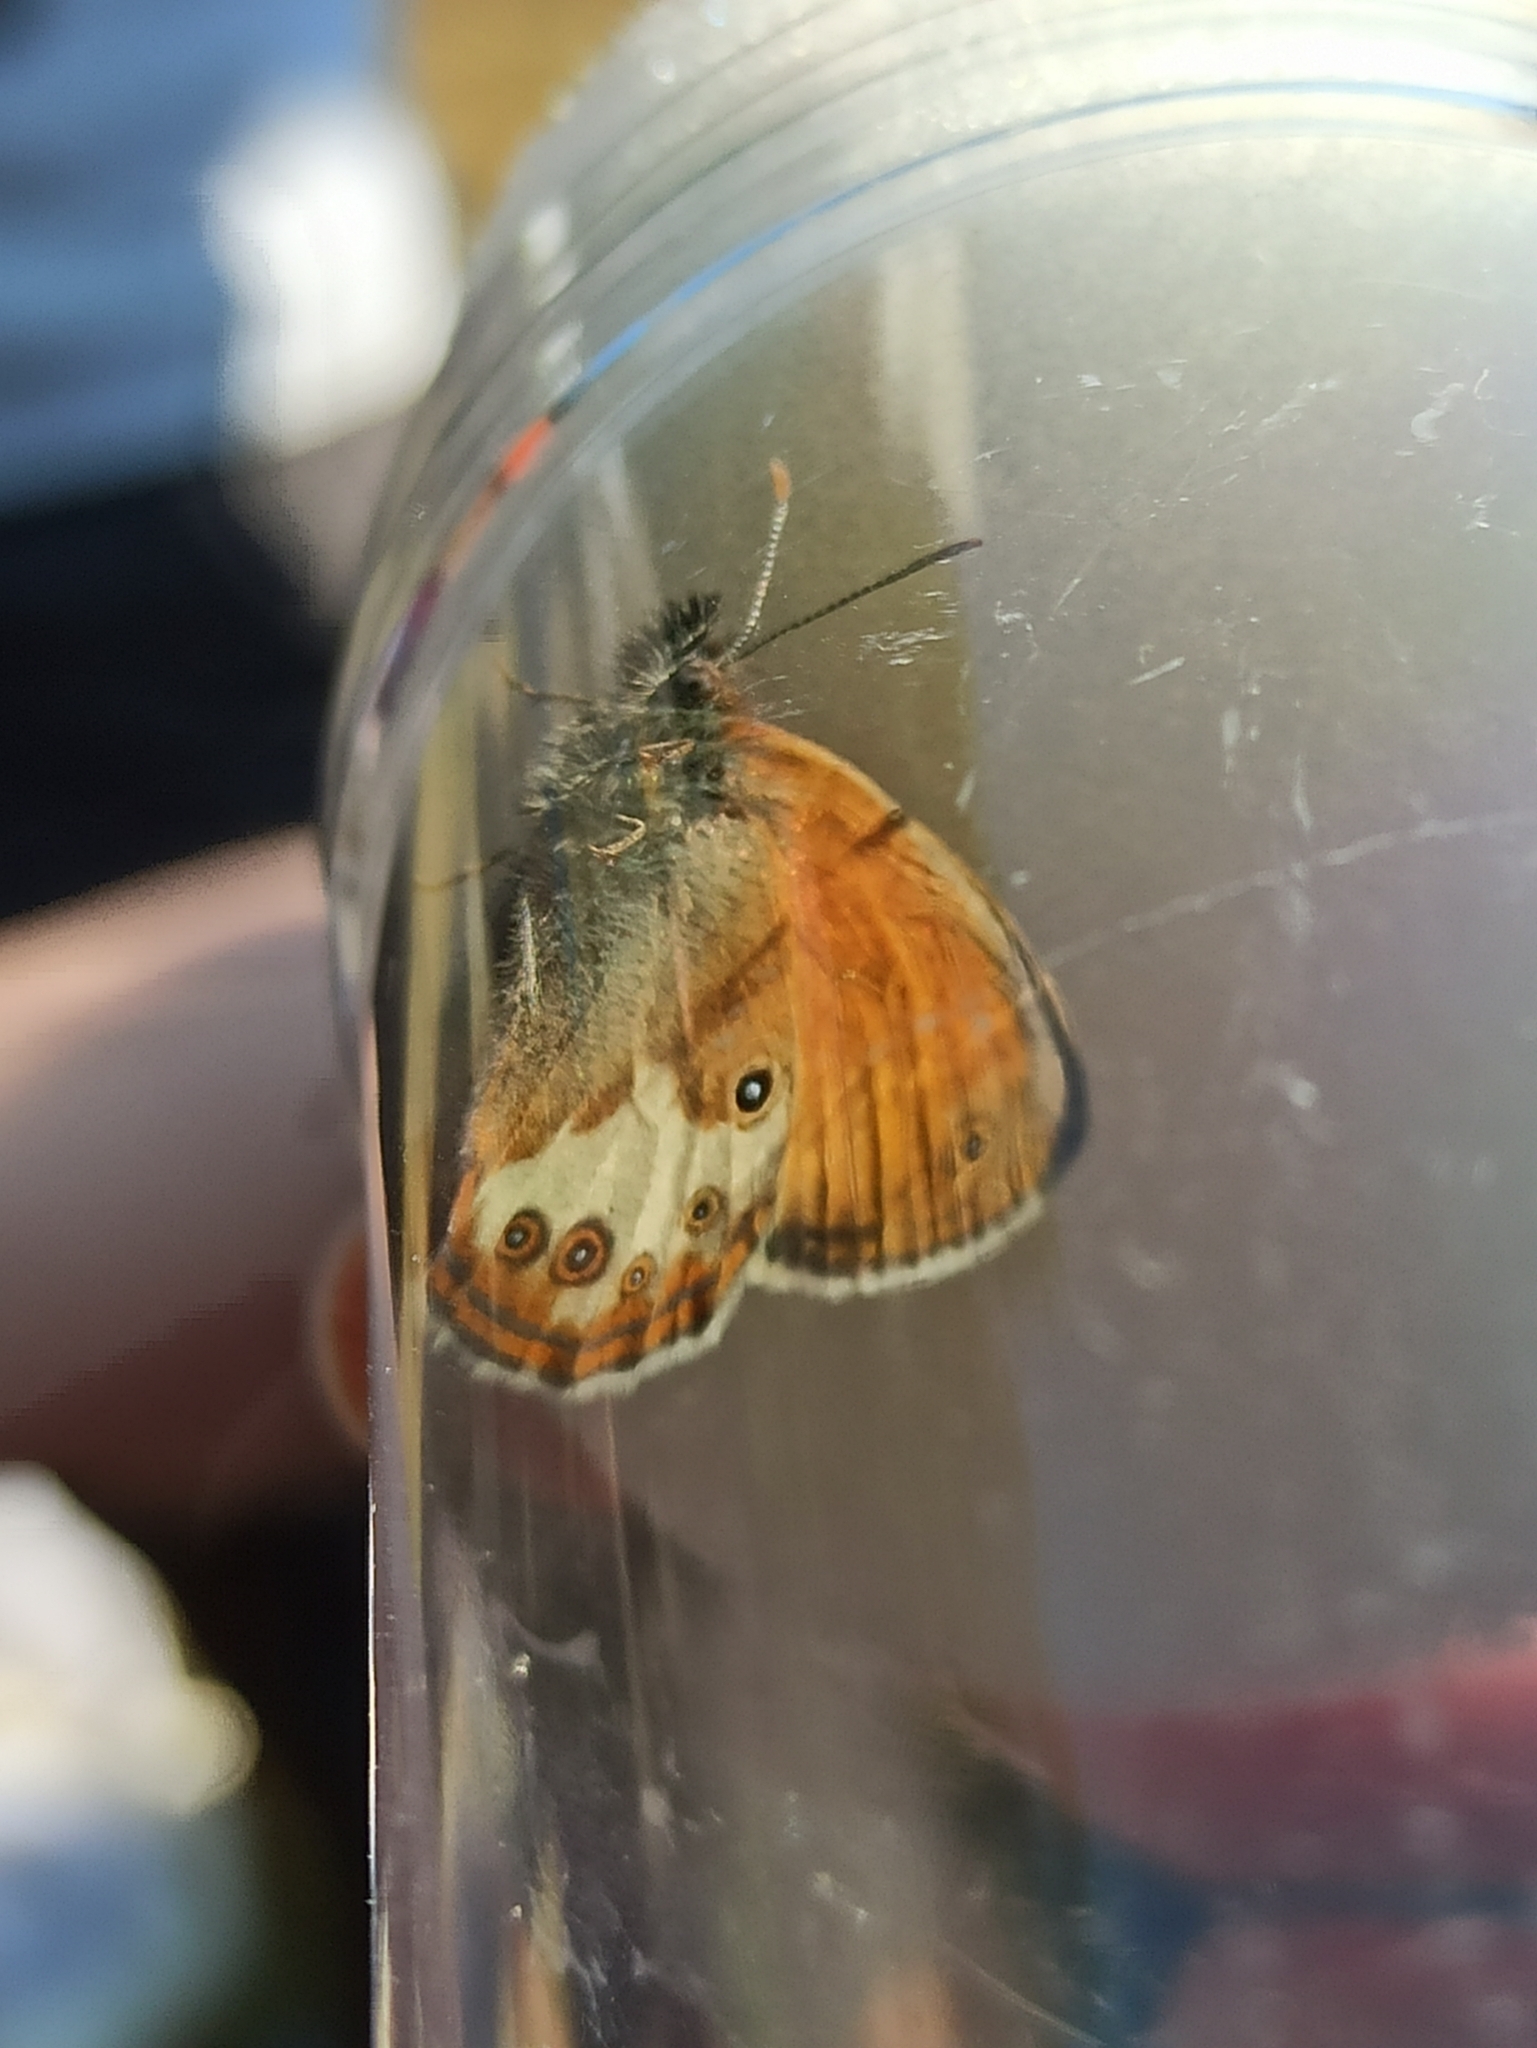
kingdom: Animalia
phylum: Arthropoda
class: Insecta
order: Lepidoptera
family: Nymphalidae
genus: Coenonympha
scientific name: Coenonympha arcania
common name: Pearly heath
